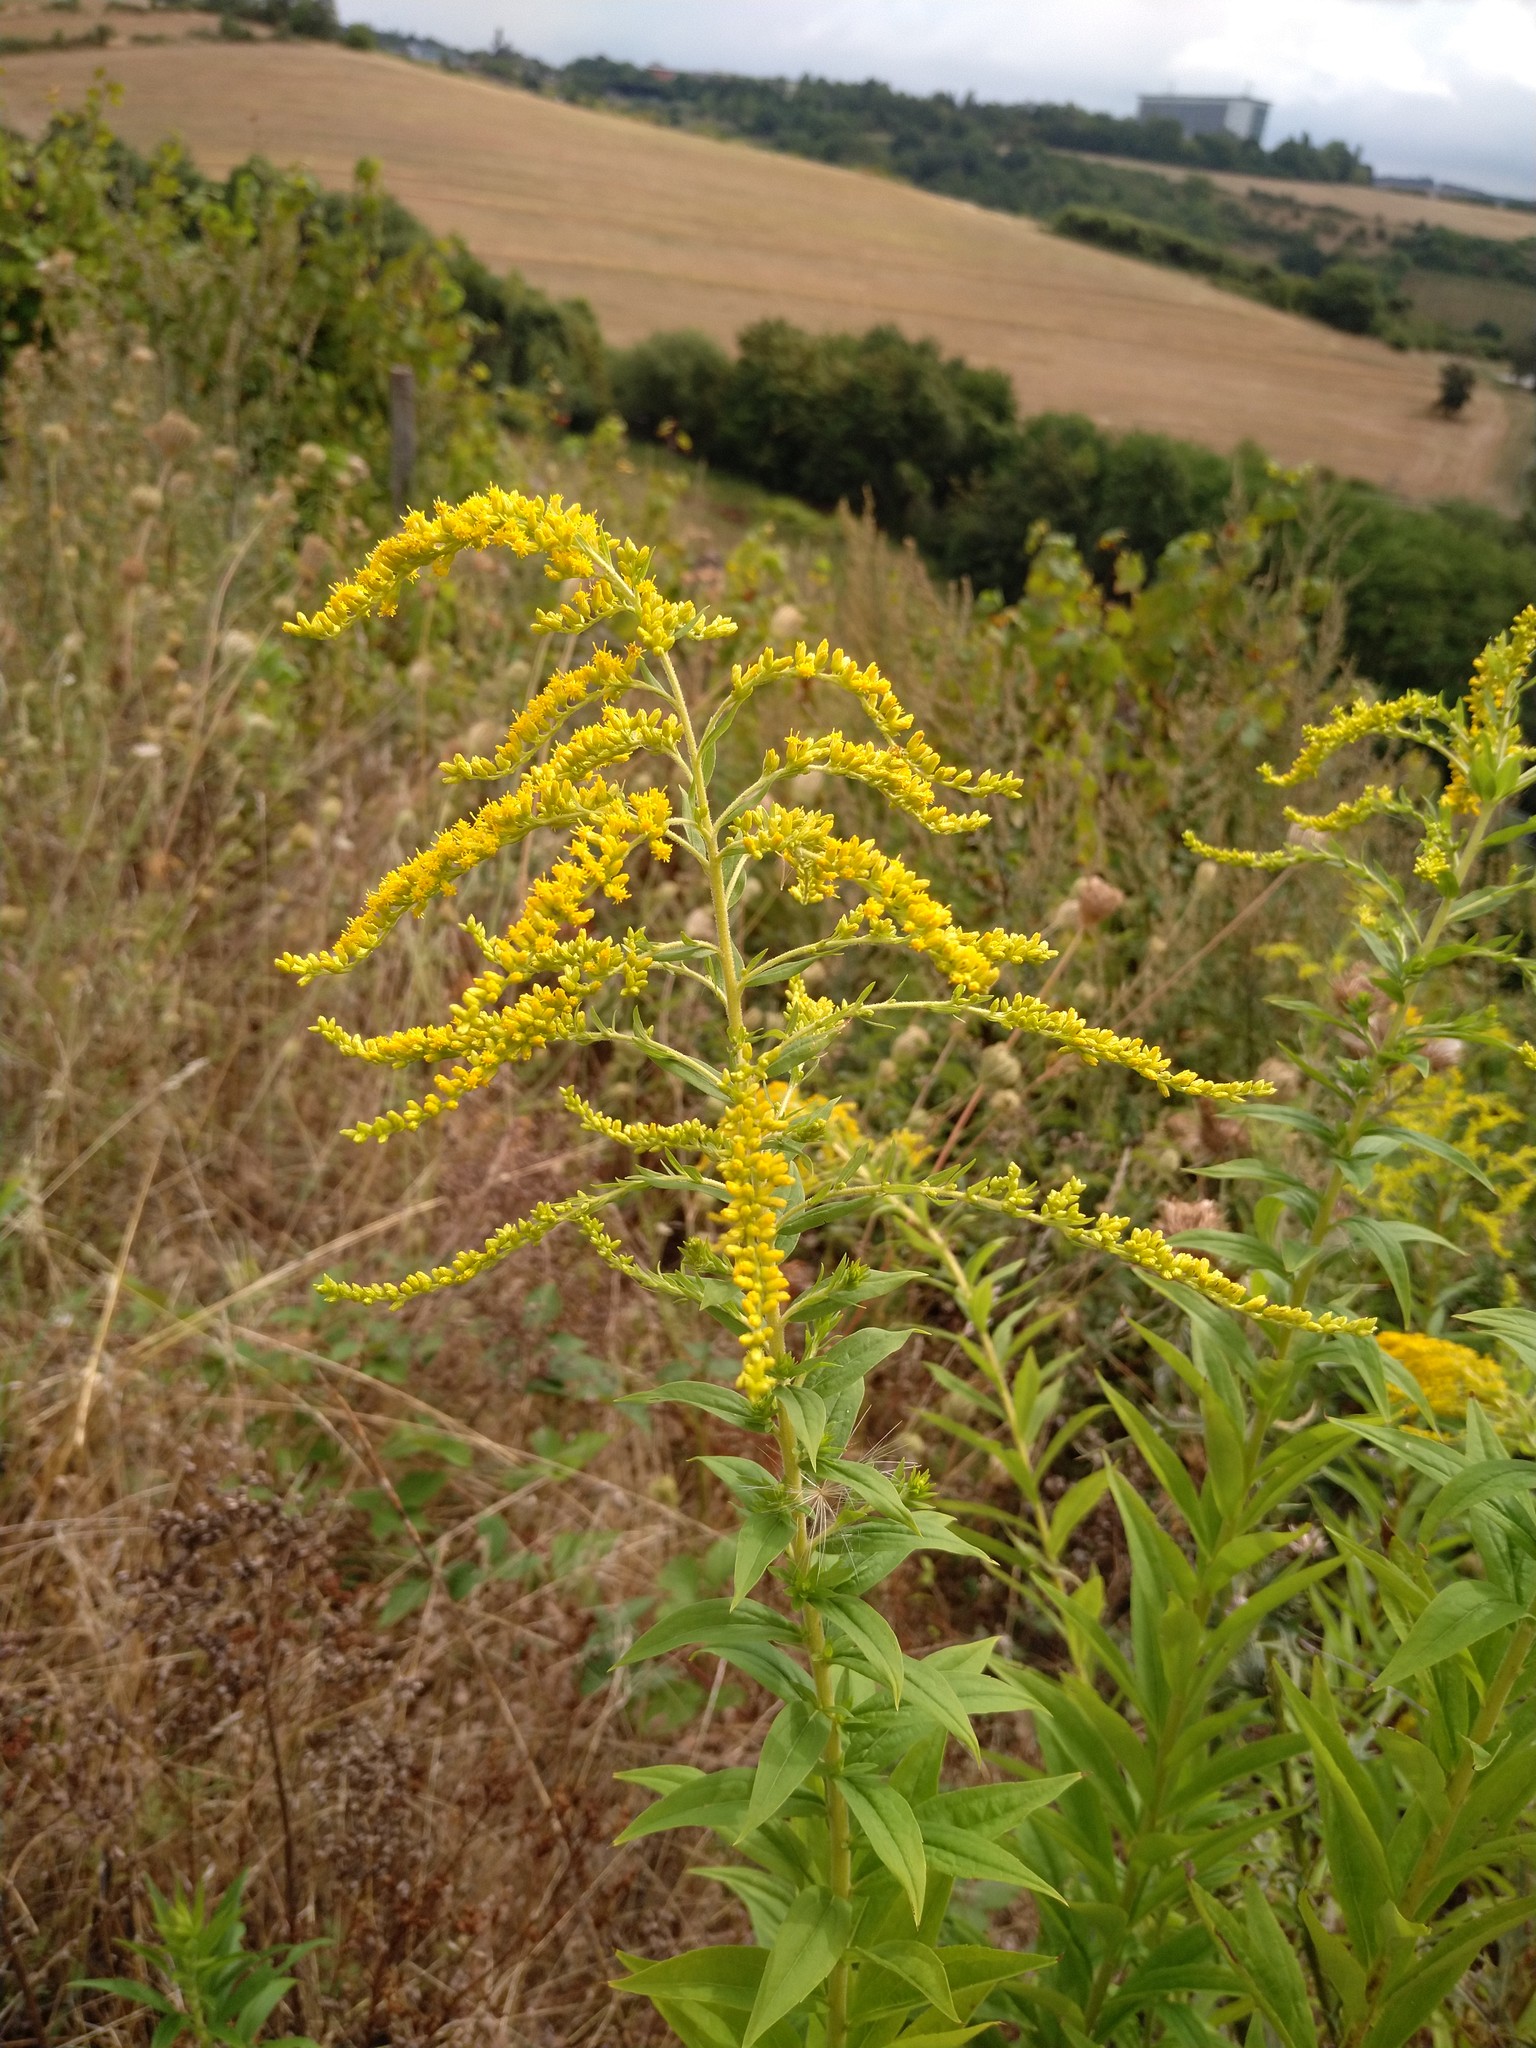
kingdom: Plantae
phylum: Tracheophyta
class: Magnoliopsida
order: Asterales
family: Asteraceae
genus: Solidago
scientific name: Solidago canadensis
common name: Canada goldenrod
